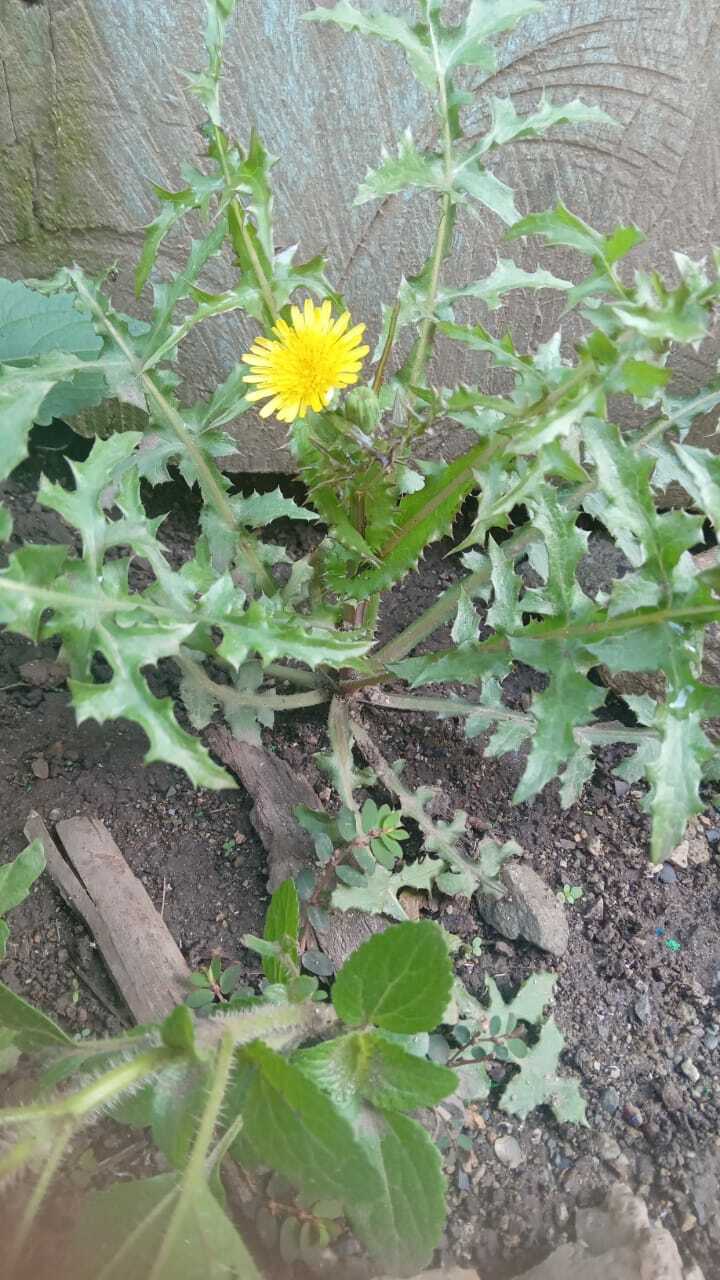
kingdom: Plantae
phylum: Tracheophyta
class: Magnoliopsida
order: Asterales
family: Asteraceae
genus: Sonchus
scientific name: Sonchus oleraceus
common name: Common sowthistle
